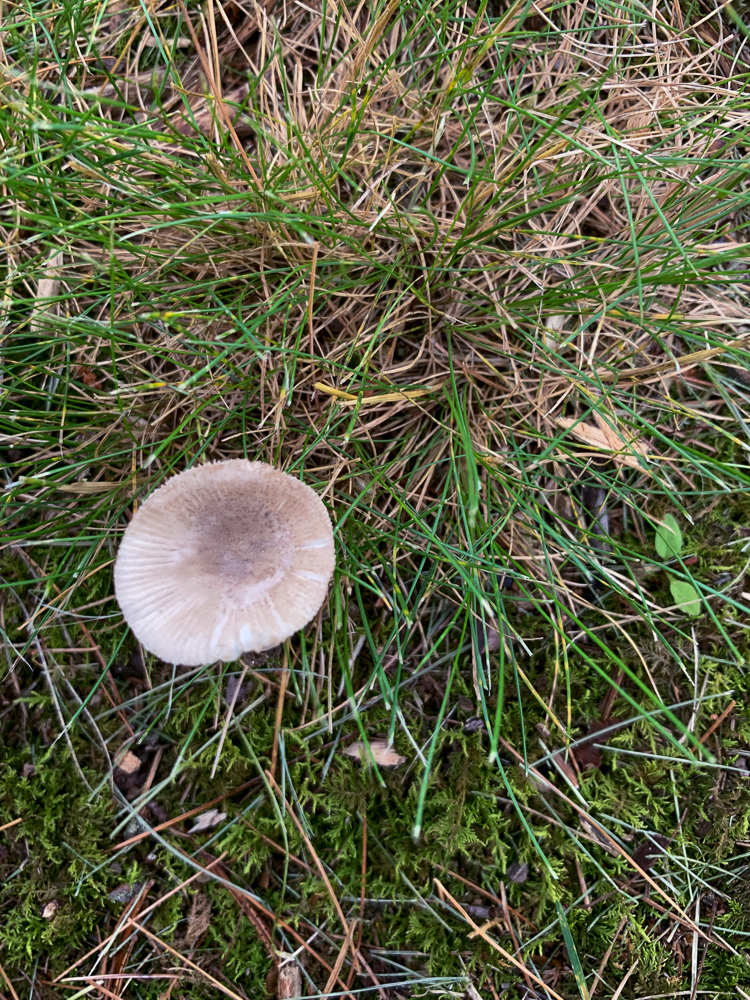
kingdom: Fungi
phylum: Basidiomycota
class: Agaricomycetes
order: Agaricales
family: Amanitaceae
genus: Amanita
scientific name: Amanita farinosa
